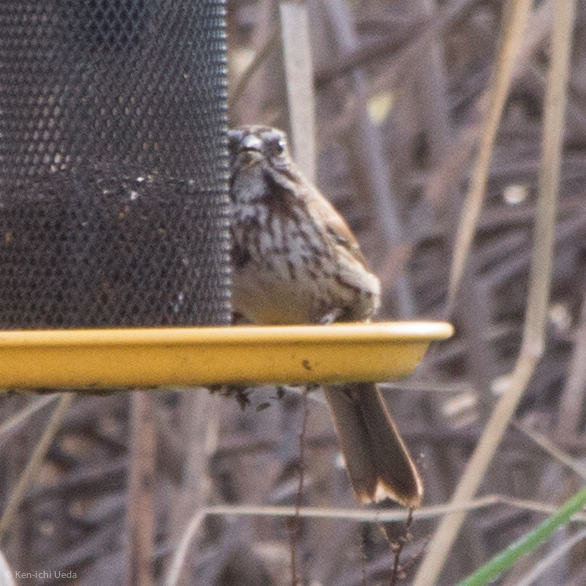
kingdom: Animalia
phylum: Chordata
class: Aves
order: Passeriformes
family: Passerellidae
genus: Melospiza
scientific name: Melospiza melodia
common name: Song sparrow
